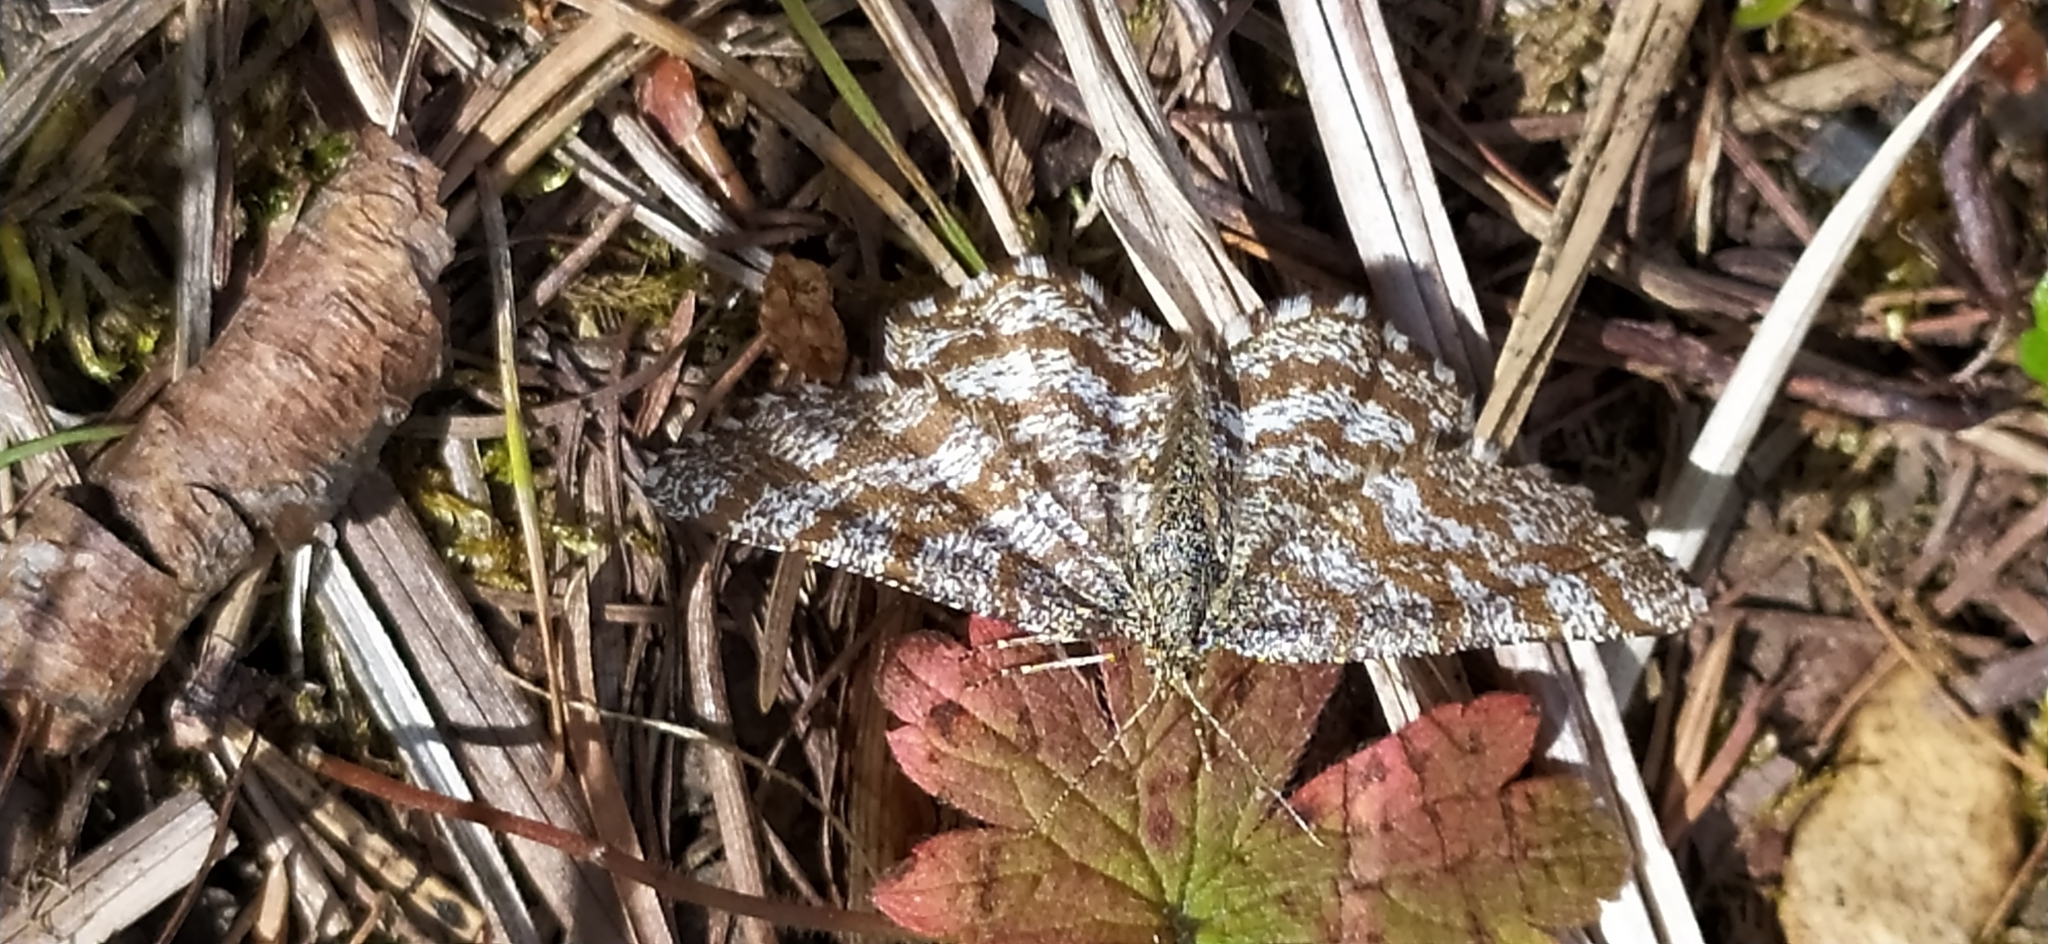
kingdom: Animalia
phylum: Arthropoda
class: Insecta
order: Lepidoptera
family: Geometridae
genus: Ematurga
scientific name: Ematurga atomaria
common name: Common heath
